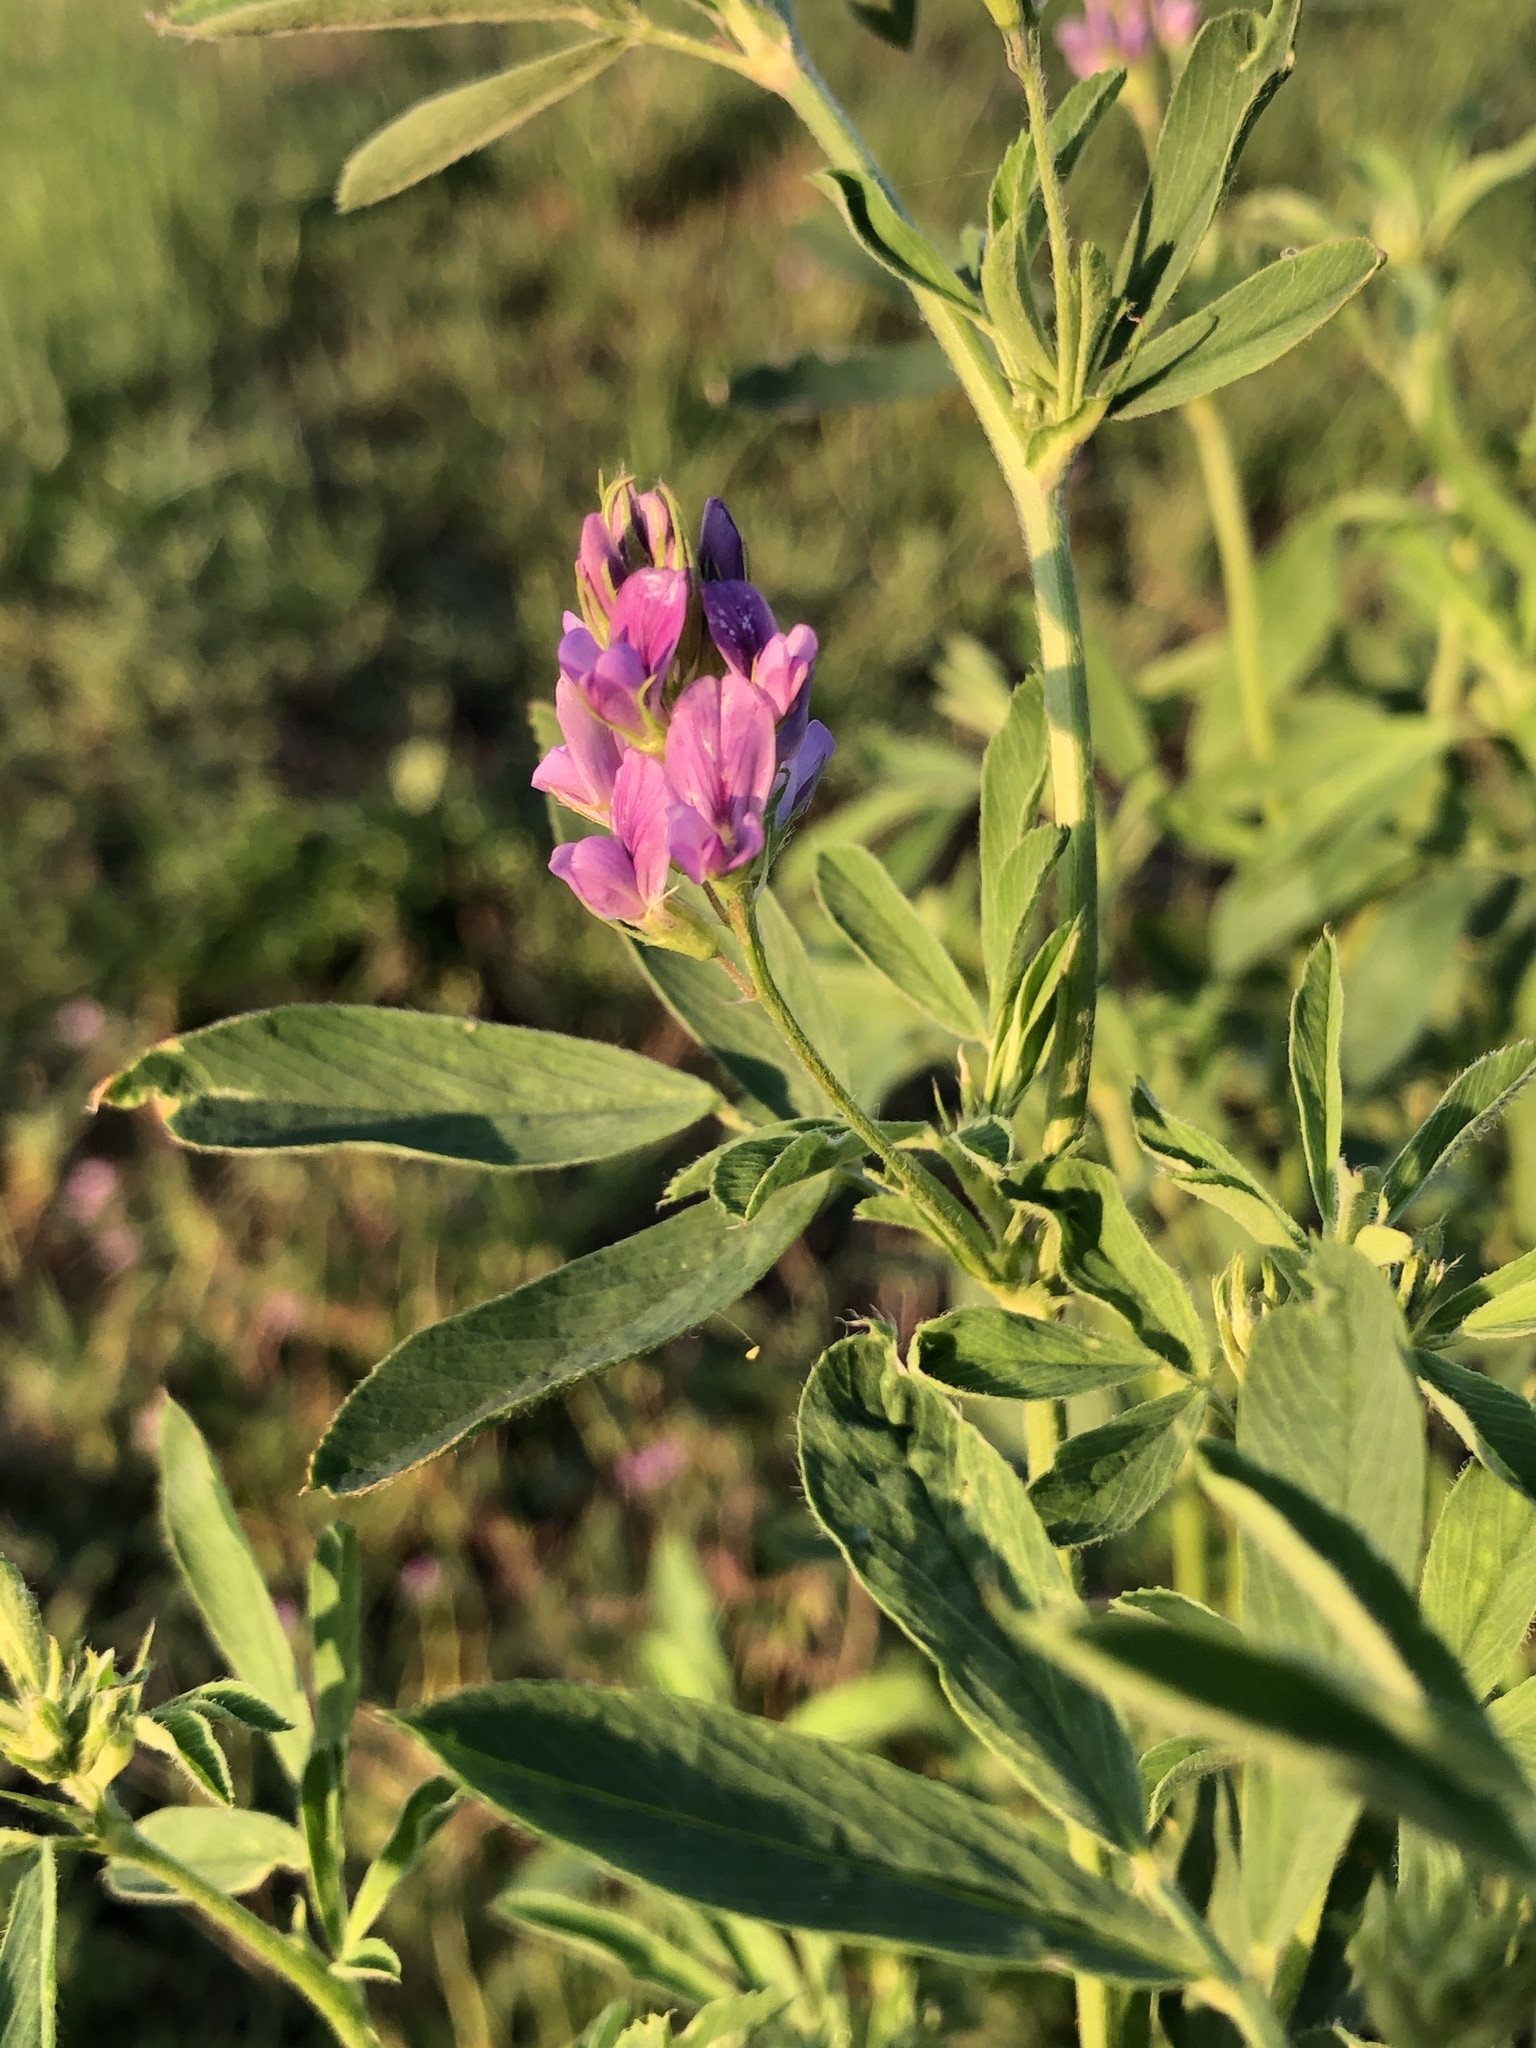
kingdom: Plantae
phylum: Tracheophyta
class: Magnoliopsida
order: Fabales
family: Fabaceae
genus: Medicago
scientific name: Medicago sativa
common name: Alfalfa
